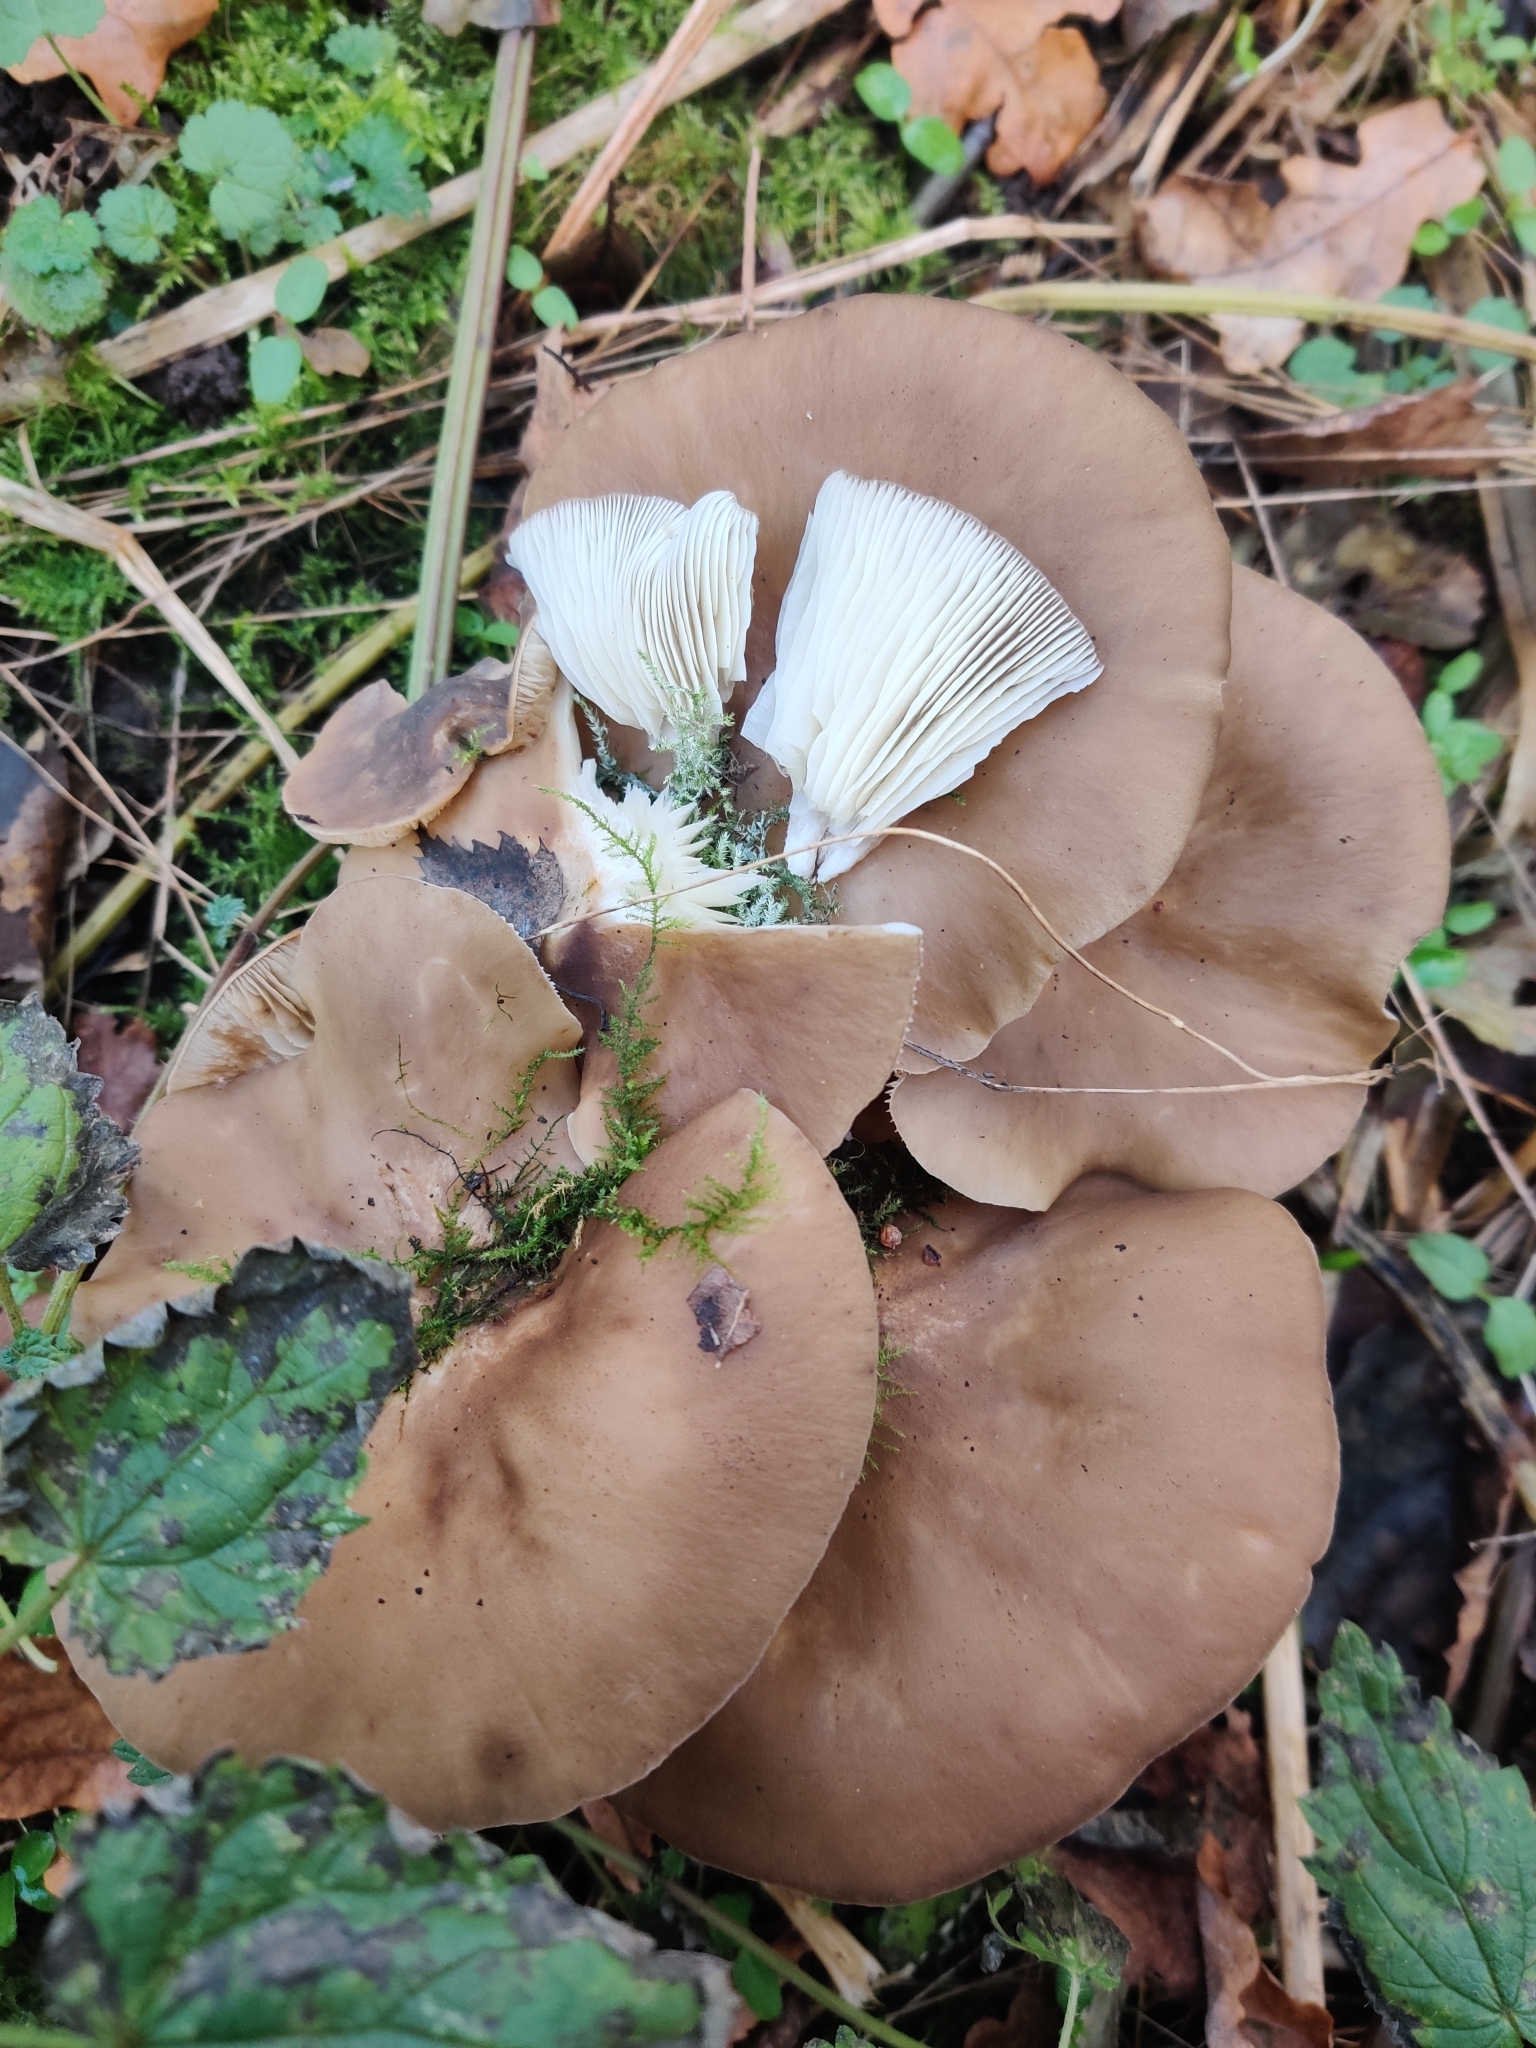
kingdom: Fungi
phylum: Basidiomycota
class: Agaricomycetes
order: Agaricales
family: Lyophyllaceae
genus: Lyophyllum
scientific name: Lyophyllum decastes
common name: Clustered domecap
